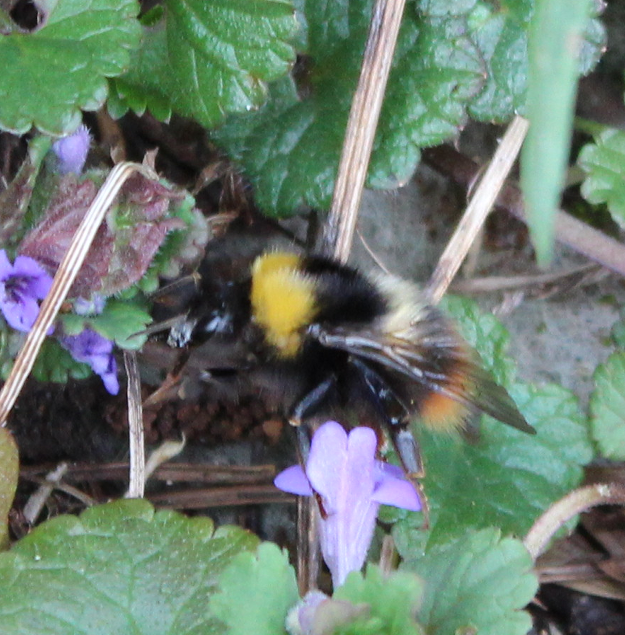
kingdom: Animalia
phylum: Arthropoda
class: Insecta
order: Hymenoptera
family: Apidae
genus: Bombus
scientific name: Bombus pratorum
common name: Early humble-bee
